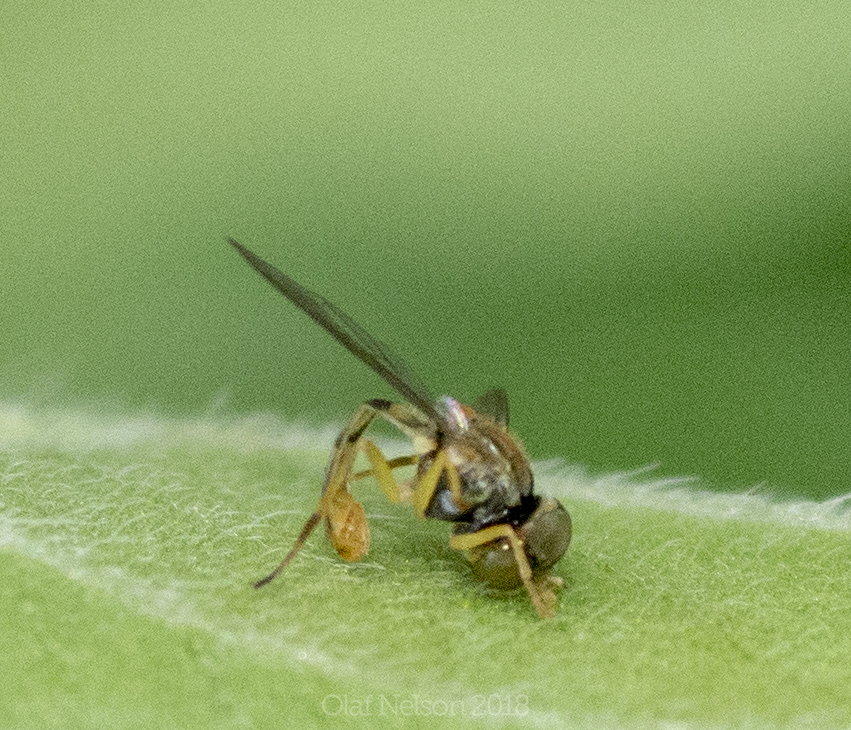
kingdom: Animalia
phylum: Arthropoda
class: Insecta
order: Diptera
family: Syrphidae
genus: Toxomerus
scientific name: Toxomerus
